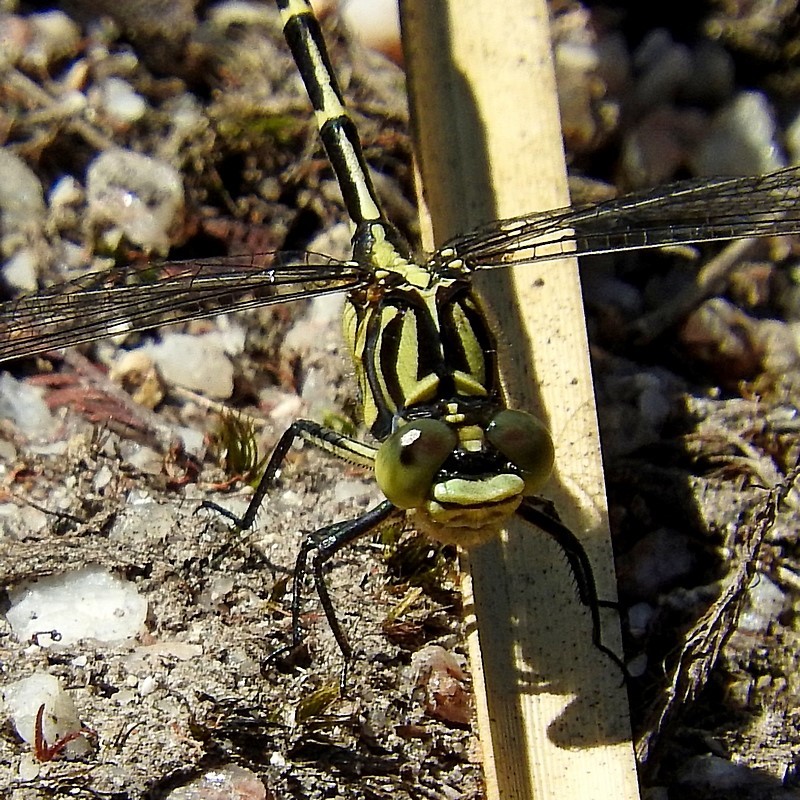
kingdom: Animalia
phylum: Arthropoda
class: Insecta
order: Odonata
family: Gomphidae
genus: Austrogomphus
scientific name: Austrogomphus guerini
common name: Yellow-striped hunter
